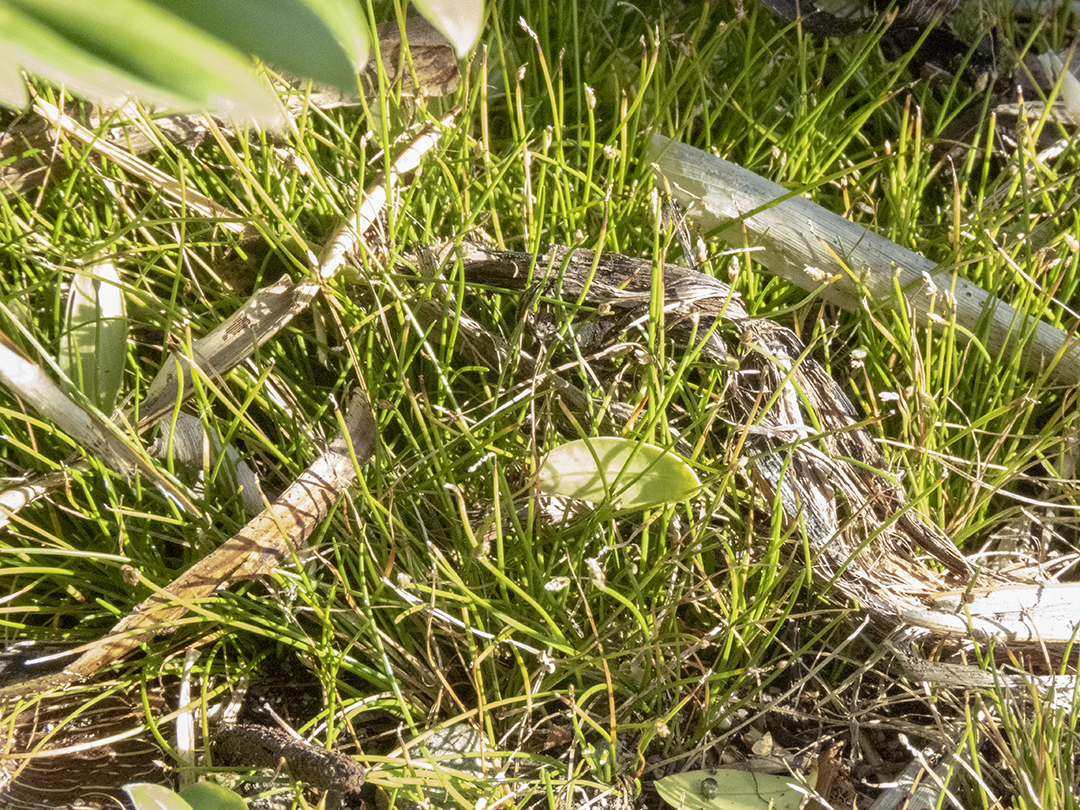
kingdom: Plantae
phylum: Tracheophyta
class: Liliopsida
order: Poales
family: Cyperaceae
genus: Isolepis
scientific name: Isolepis cernua
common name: Slender club-rush
